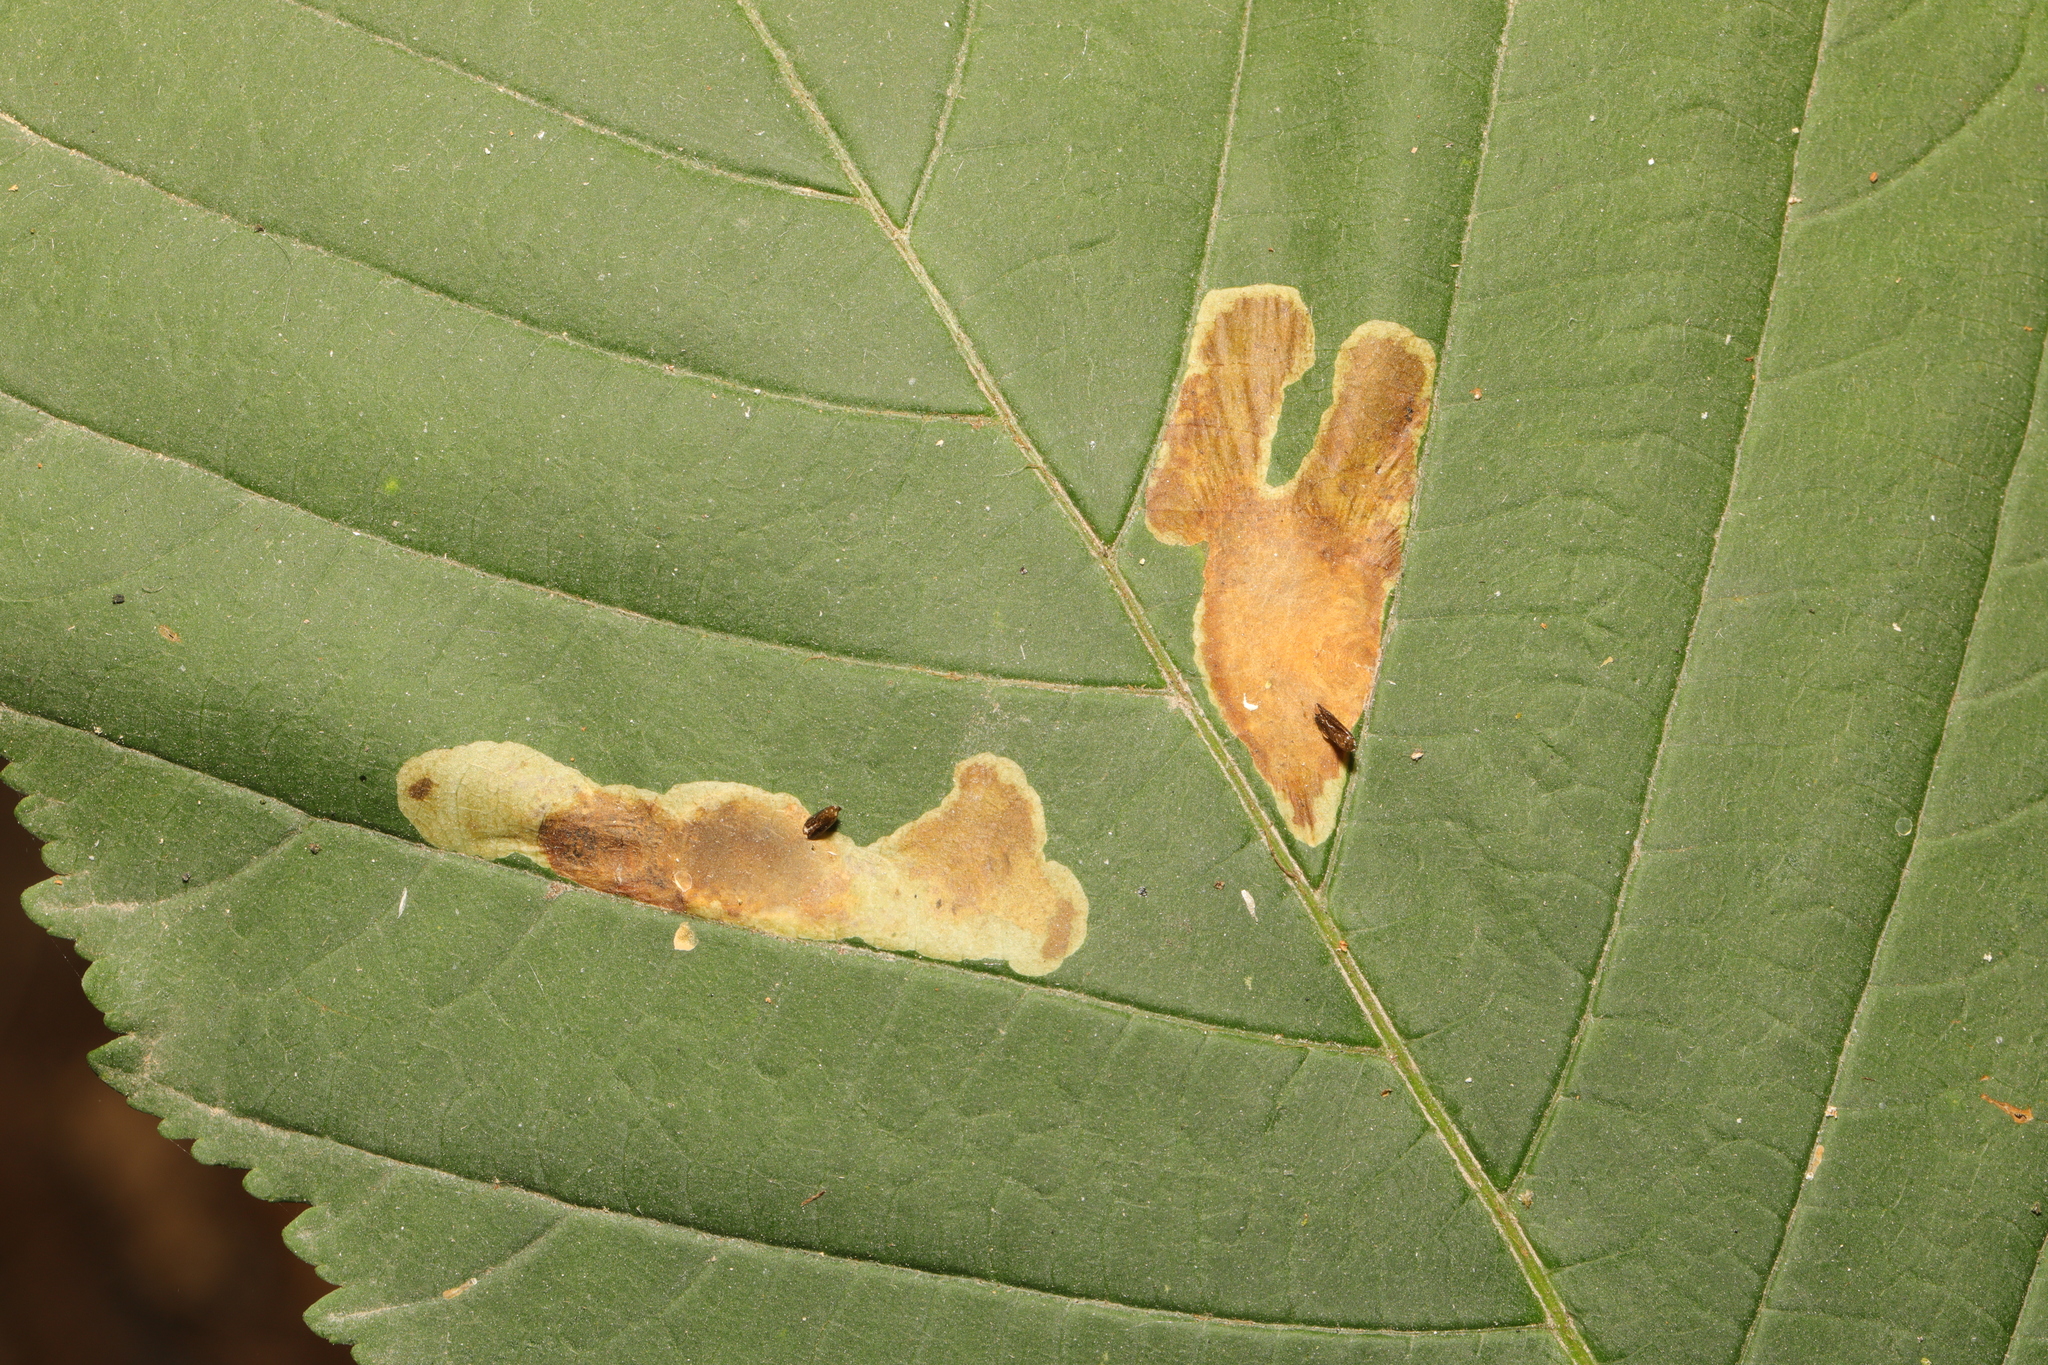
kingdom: Animalia
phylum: Arthropoda
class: Insecta
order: Lepidoptera
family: Gracillariidae
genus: Cameraria
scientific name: Cameraria ohridella
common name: Horse-chestnut leaf-miner
